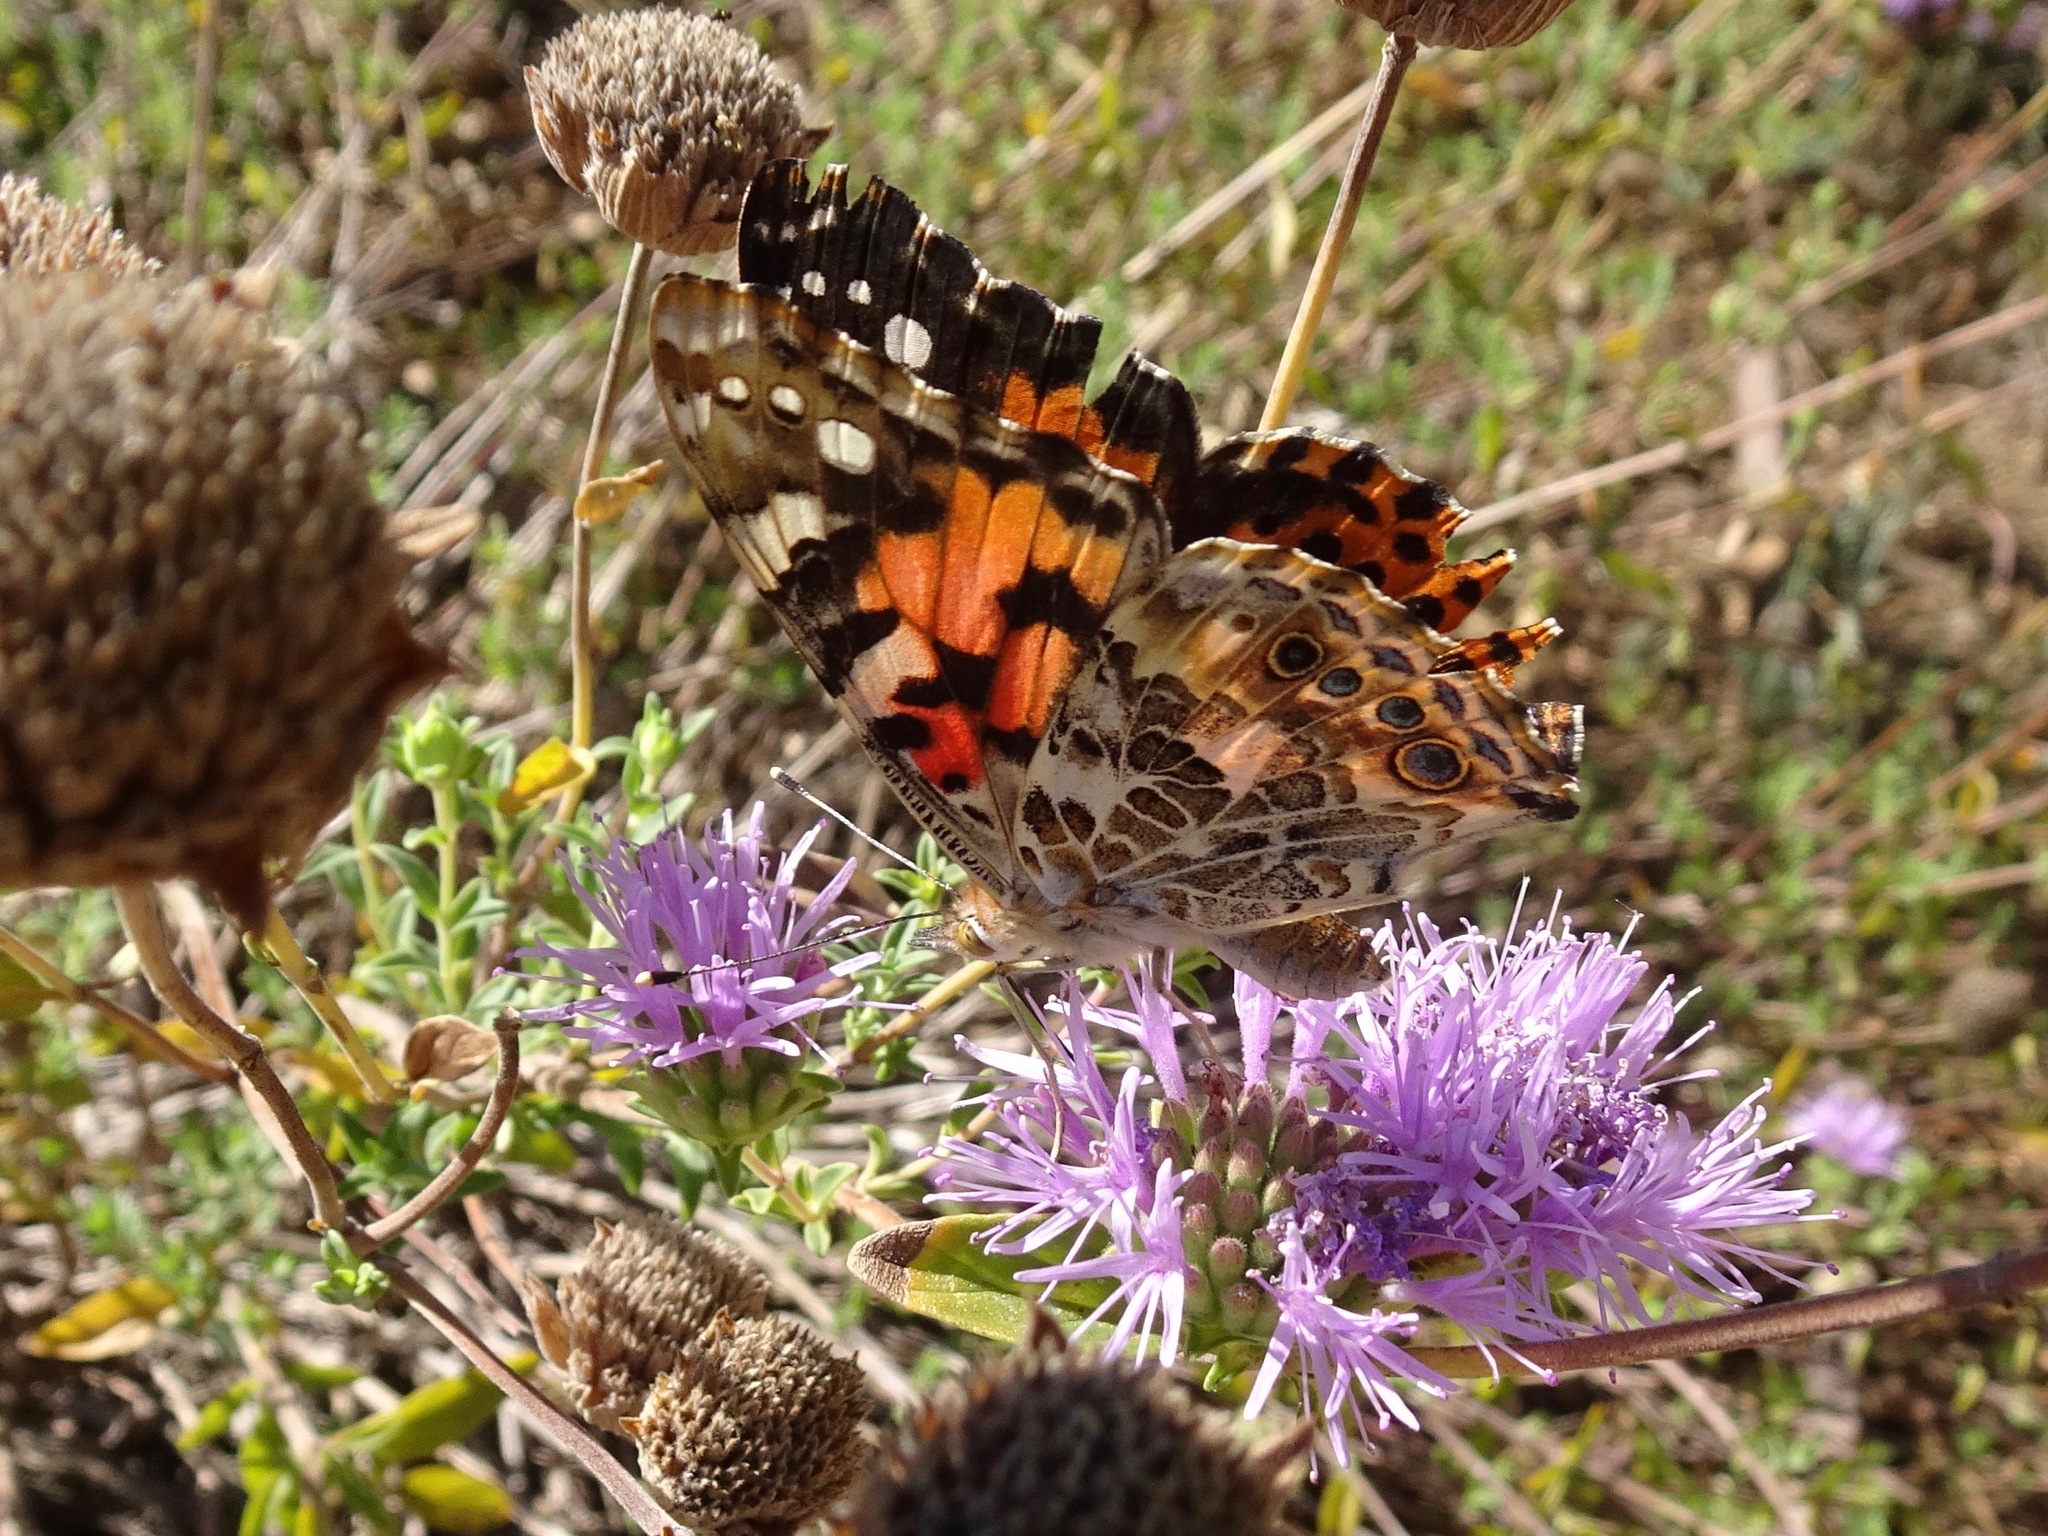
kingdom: Animalia
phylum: Arthropoda
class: Insecta
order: Lepidoptera
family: Nymphalidae
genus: Vanessa
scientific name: Vanessa cardui
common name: Painted lady
